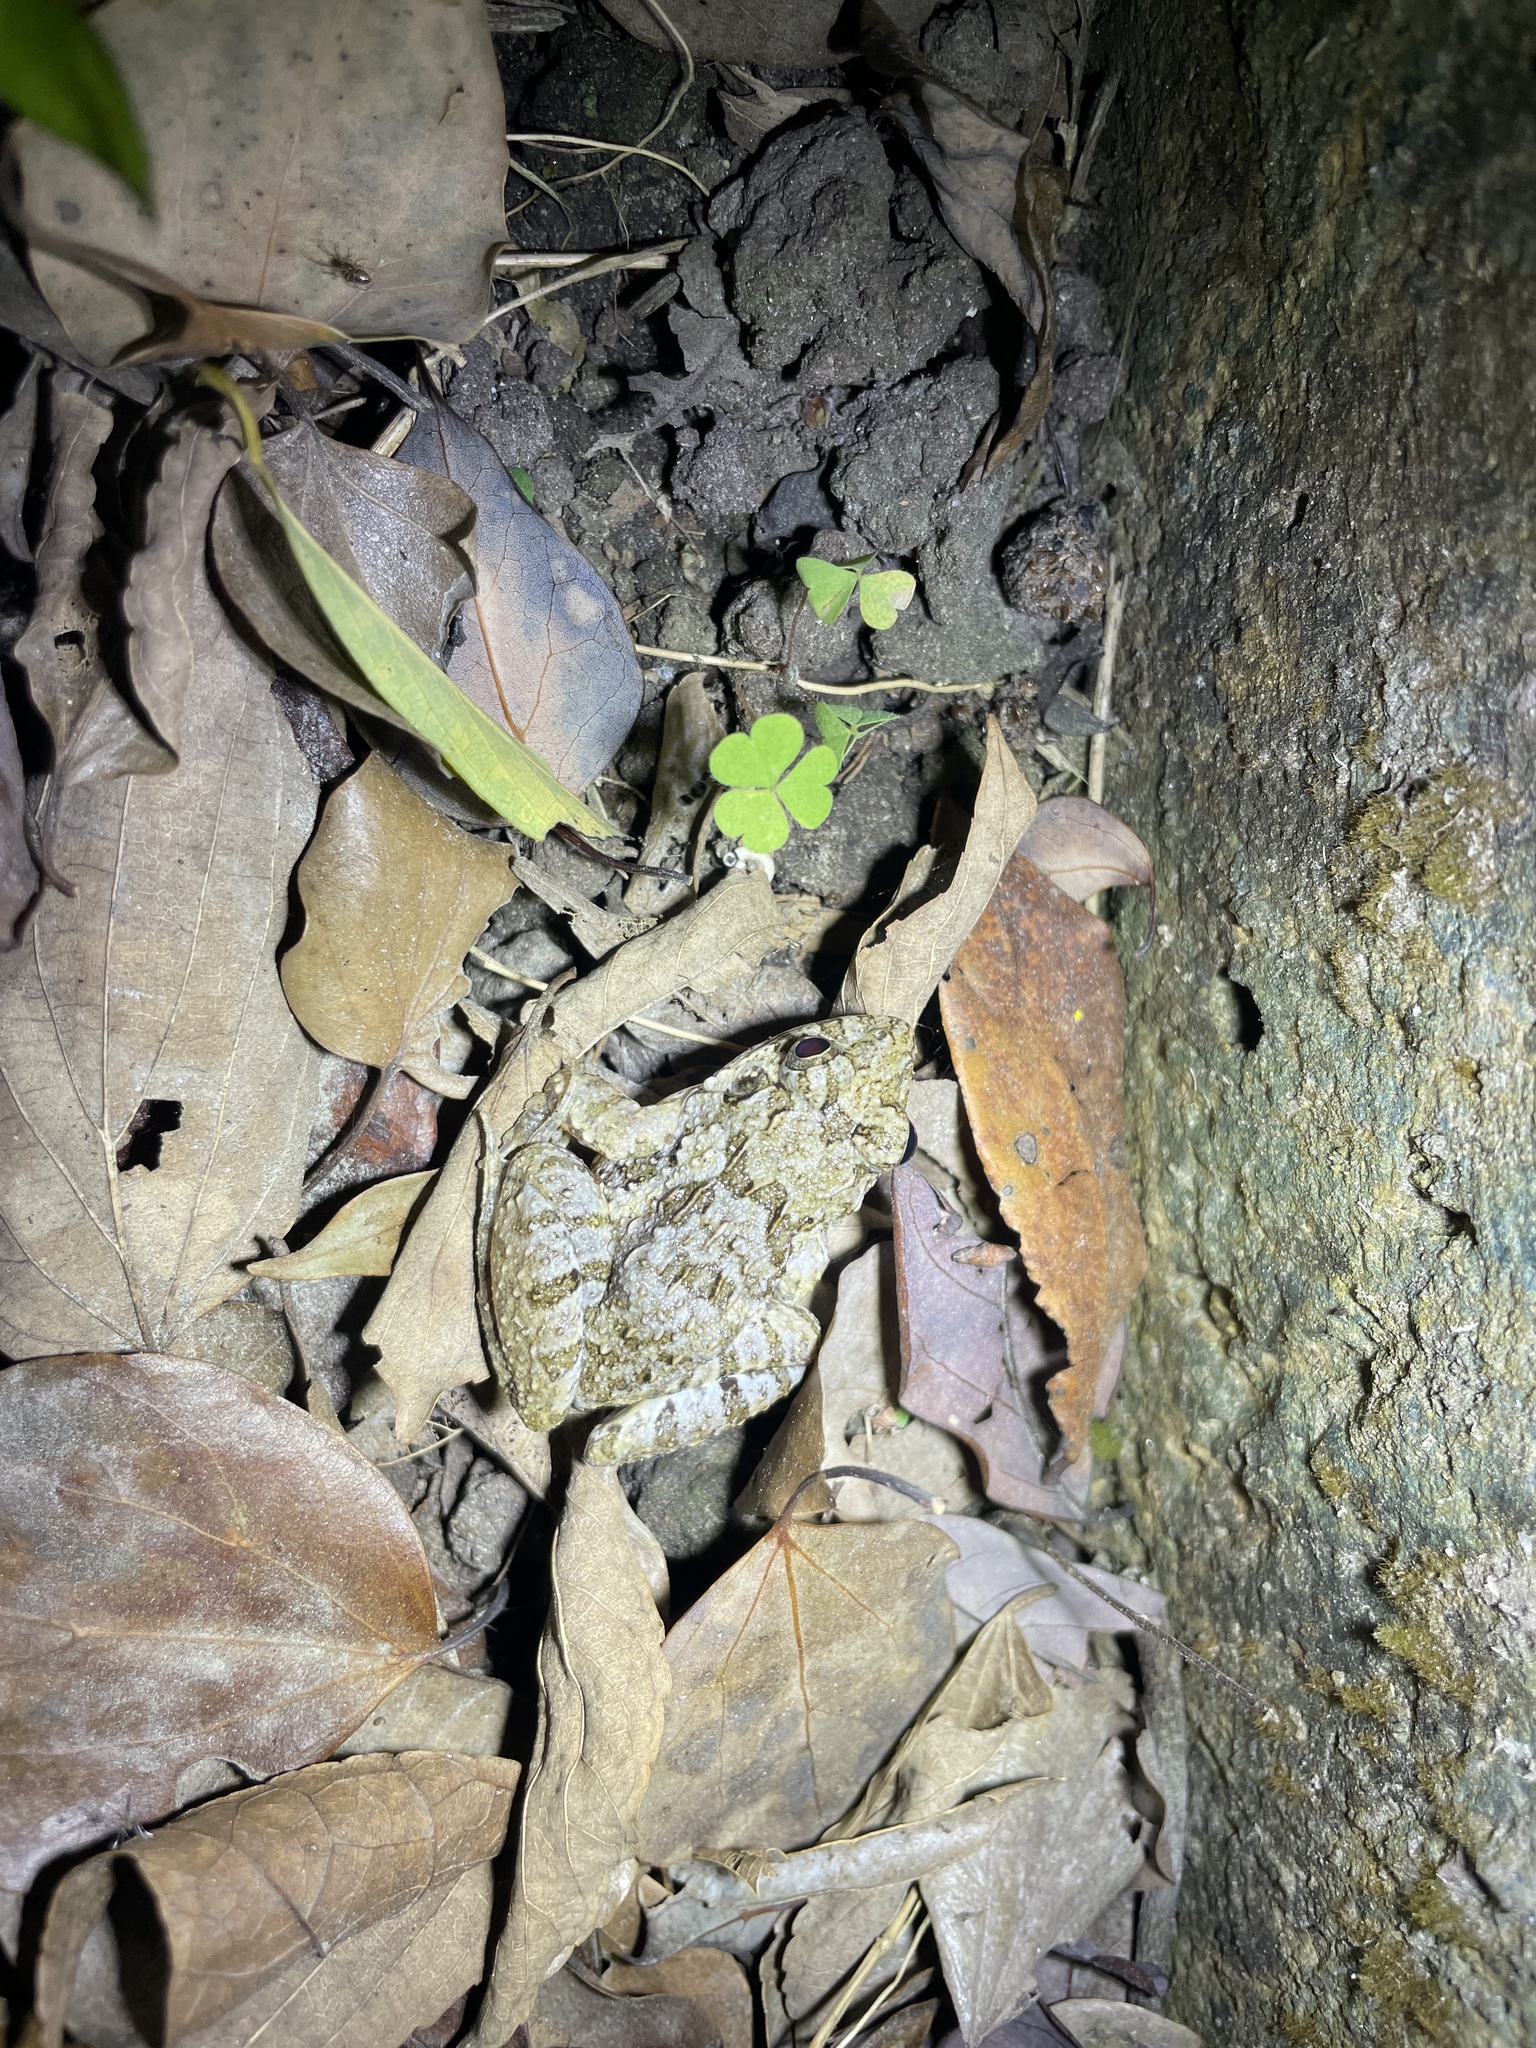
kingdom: Animalia
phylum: Chordata
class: Amphibia
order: Anura
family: Dicroglossidae
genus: Fejervarya
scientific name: Fejervarya multistriata
